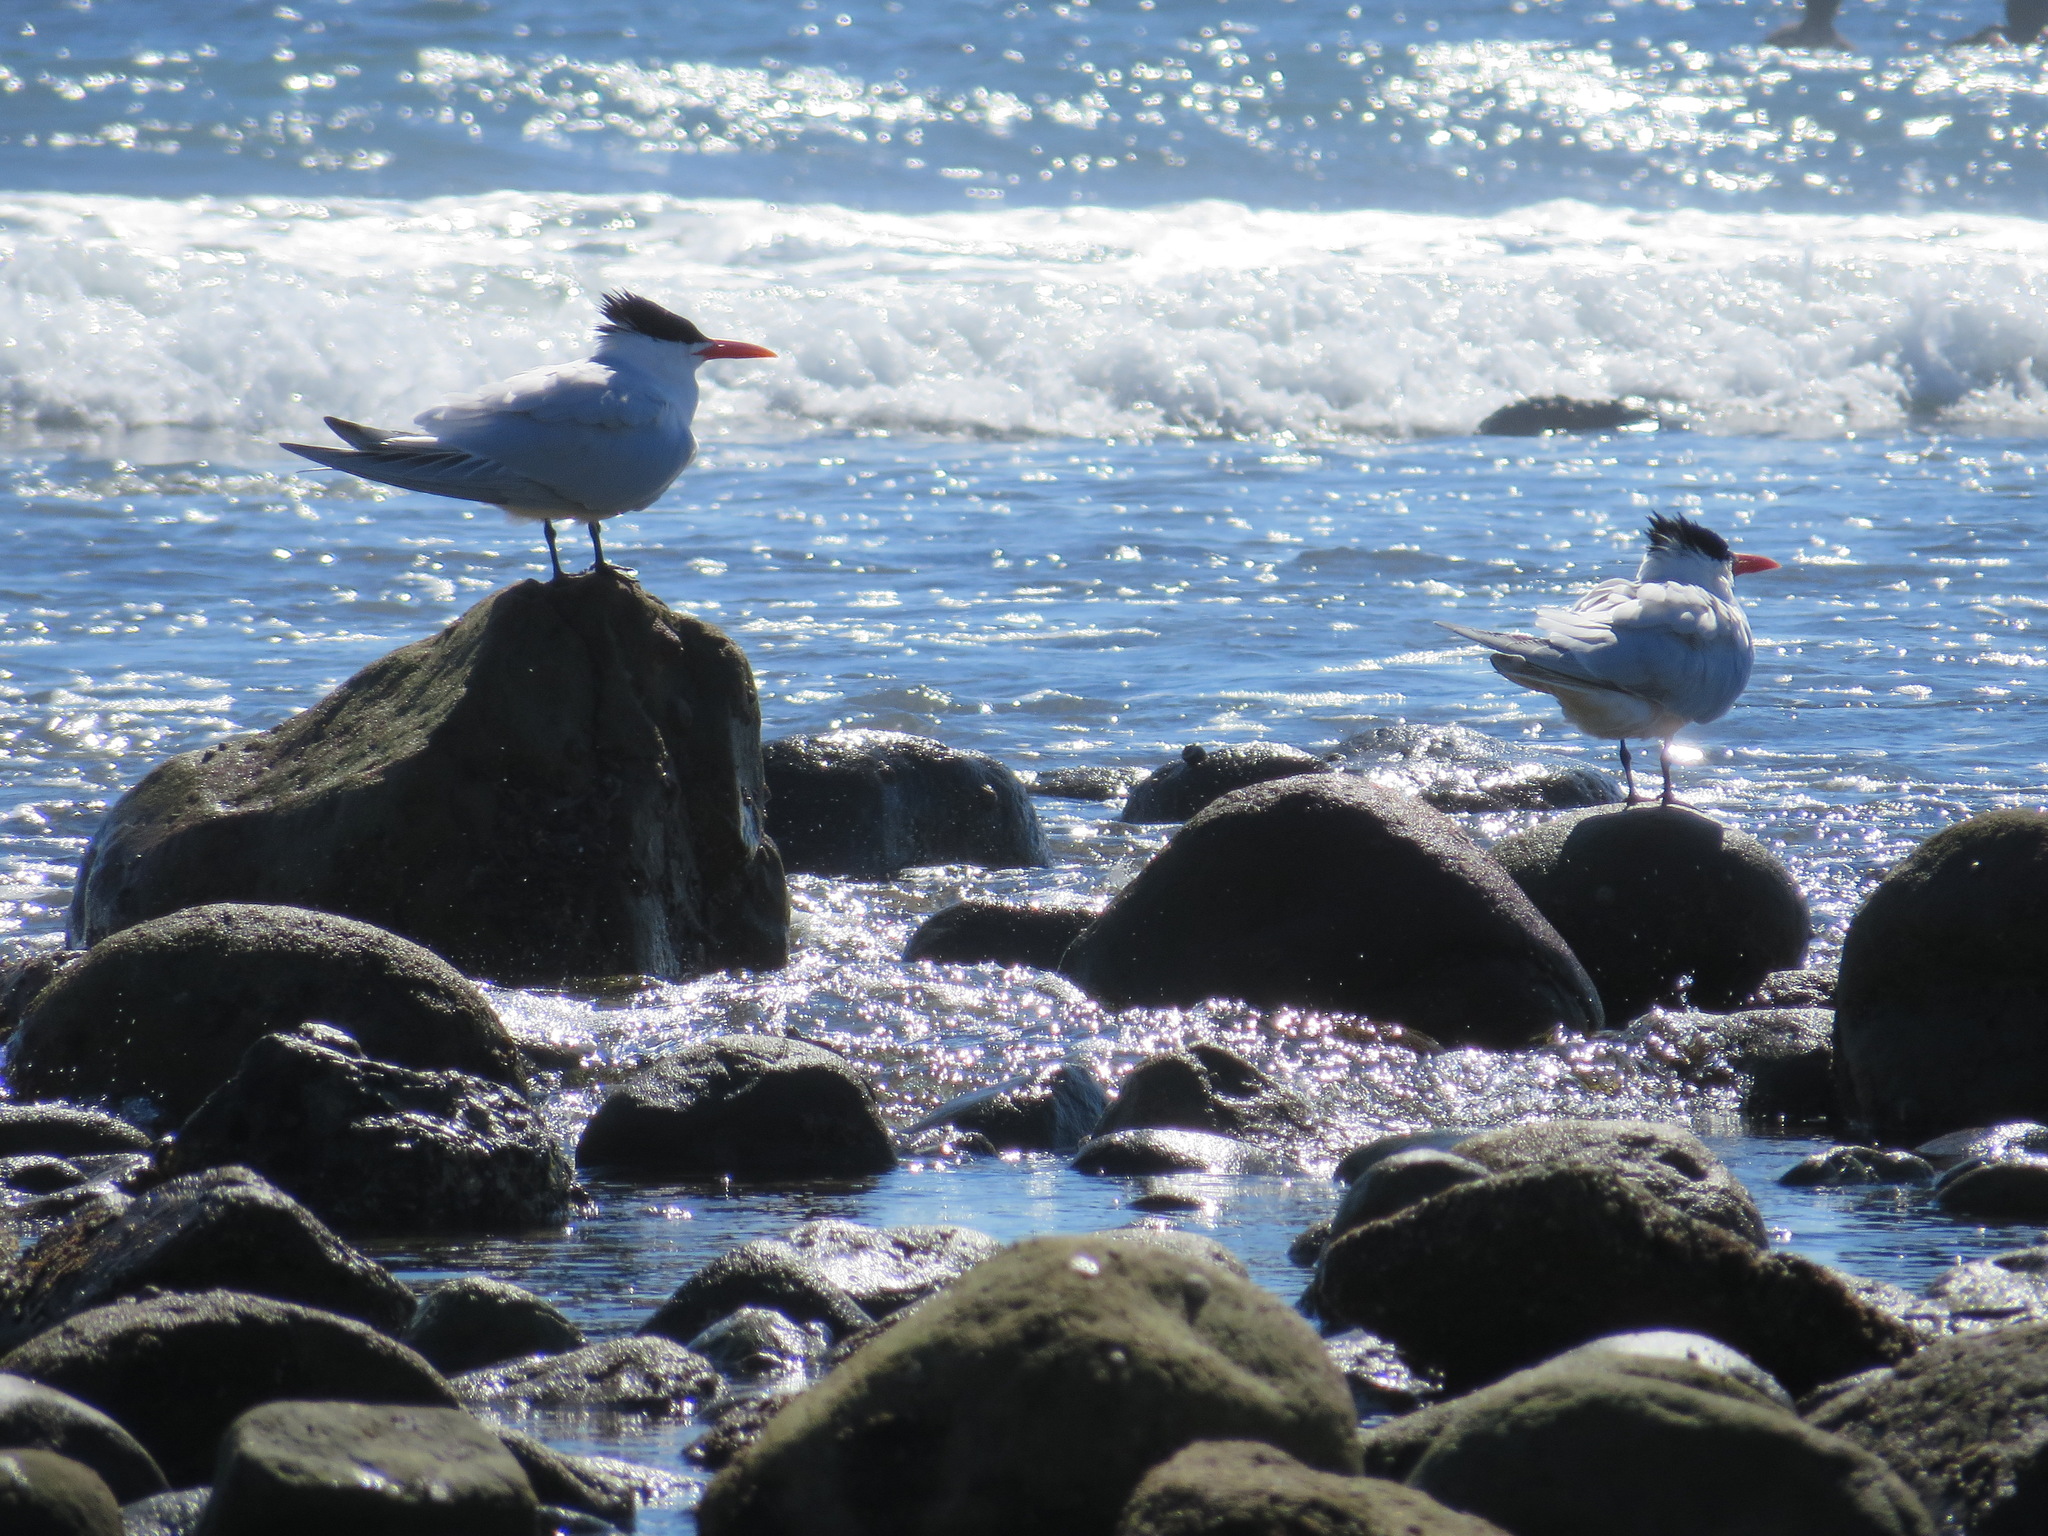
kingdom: Animalia
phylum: Chordata
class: Aves
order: Charadriiformes
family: Laridae
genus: Thalasseus
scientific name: Thalasseus maximus
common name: Royal tern
